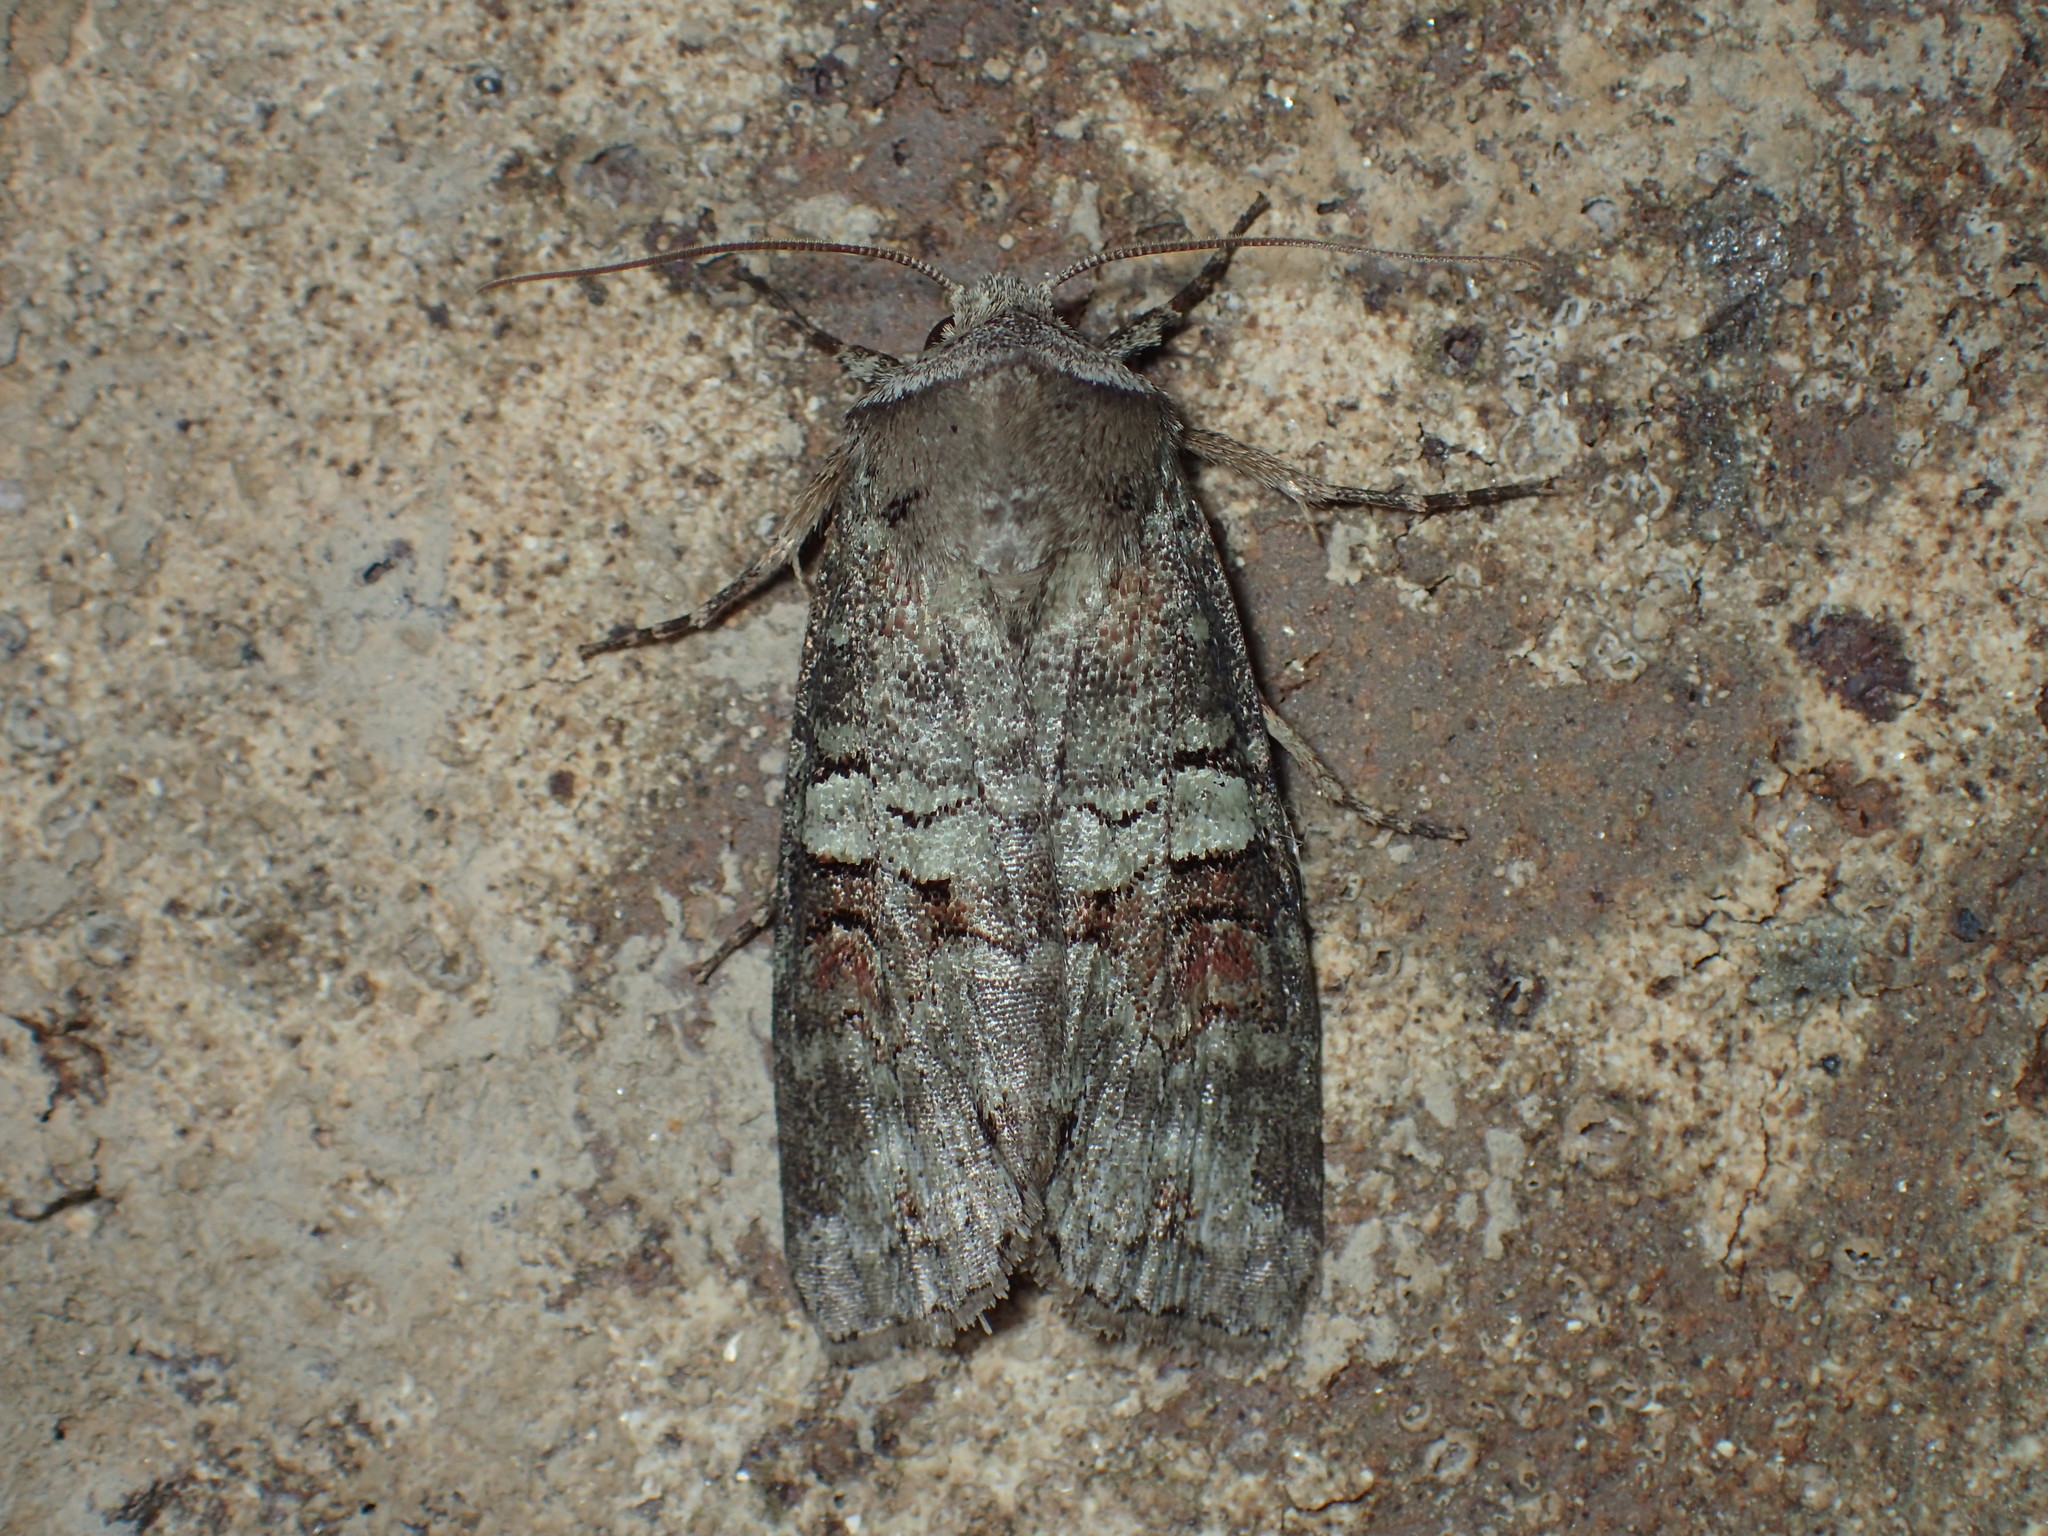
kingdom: Animalia
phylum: Arthropoda
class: Insecta
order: Lepidoptera
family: Noctuidae
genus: Egira
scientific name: Egira alternans
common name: Alternate woodling
